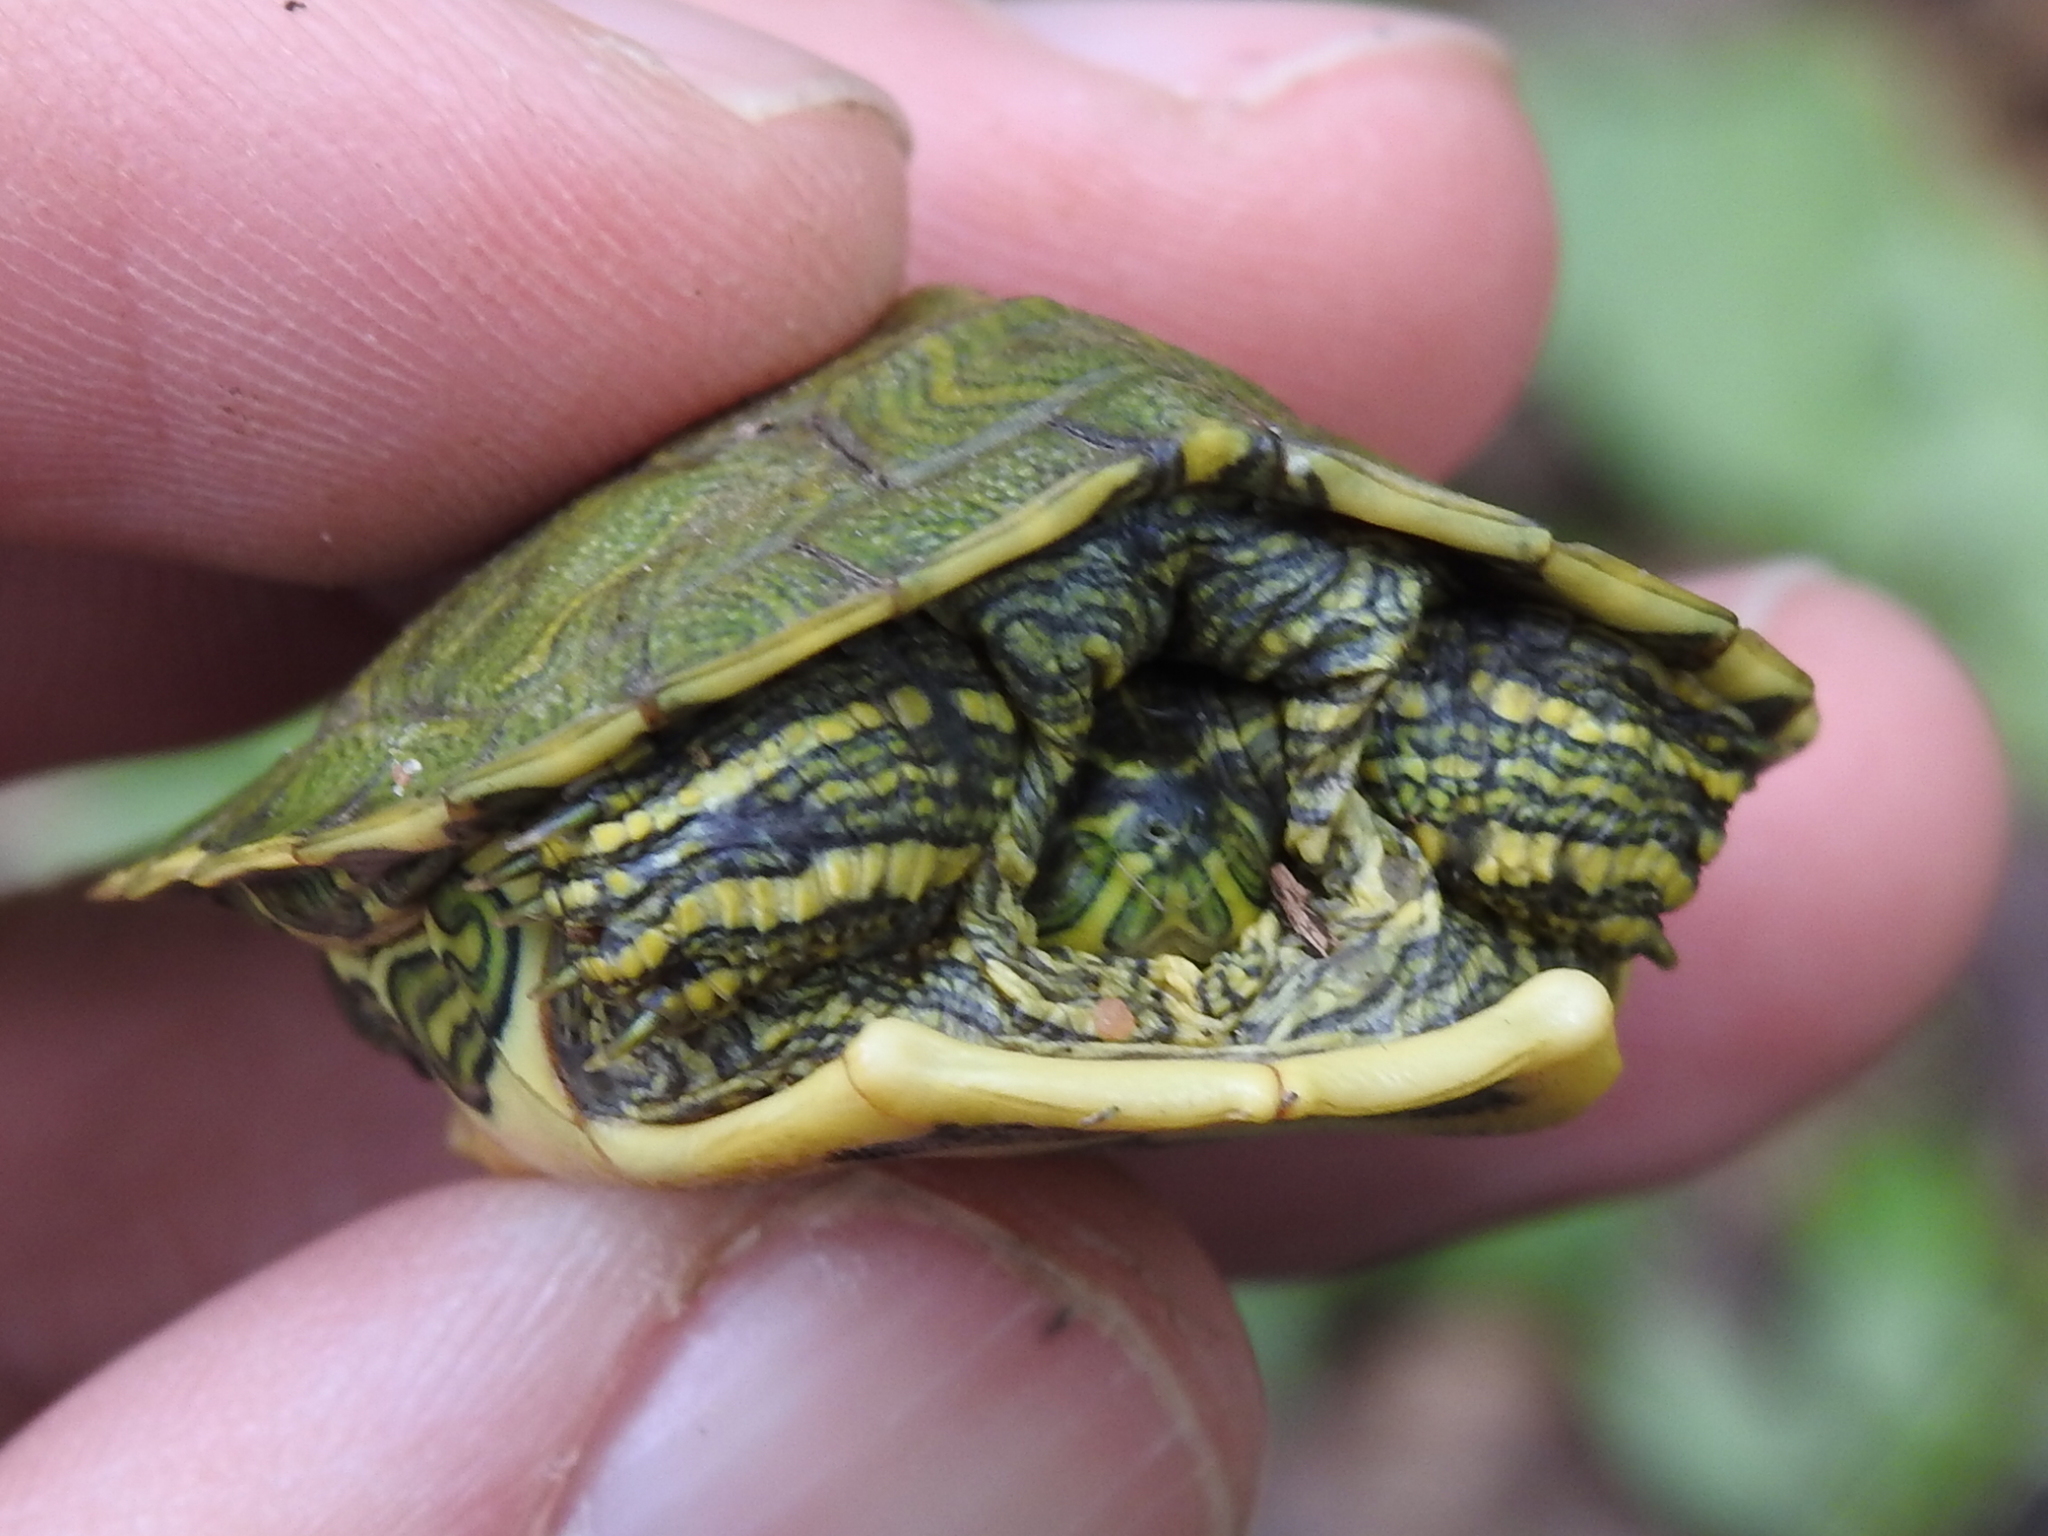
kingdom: Animalia
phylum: Chordata
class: Testudines
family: Emydidae
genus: Trachemys
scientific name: Trachemys scripta
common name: Slider
